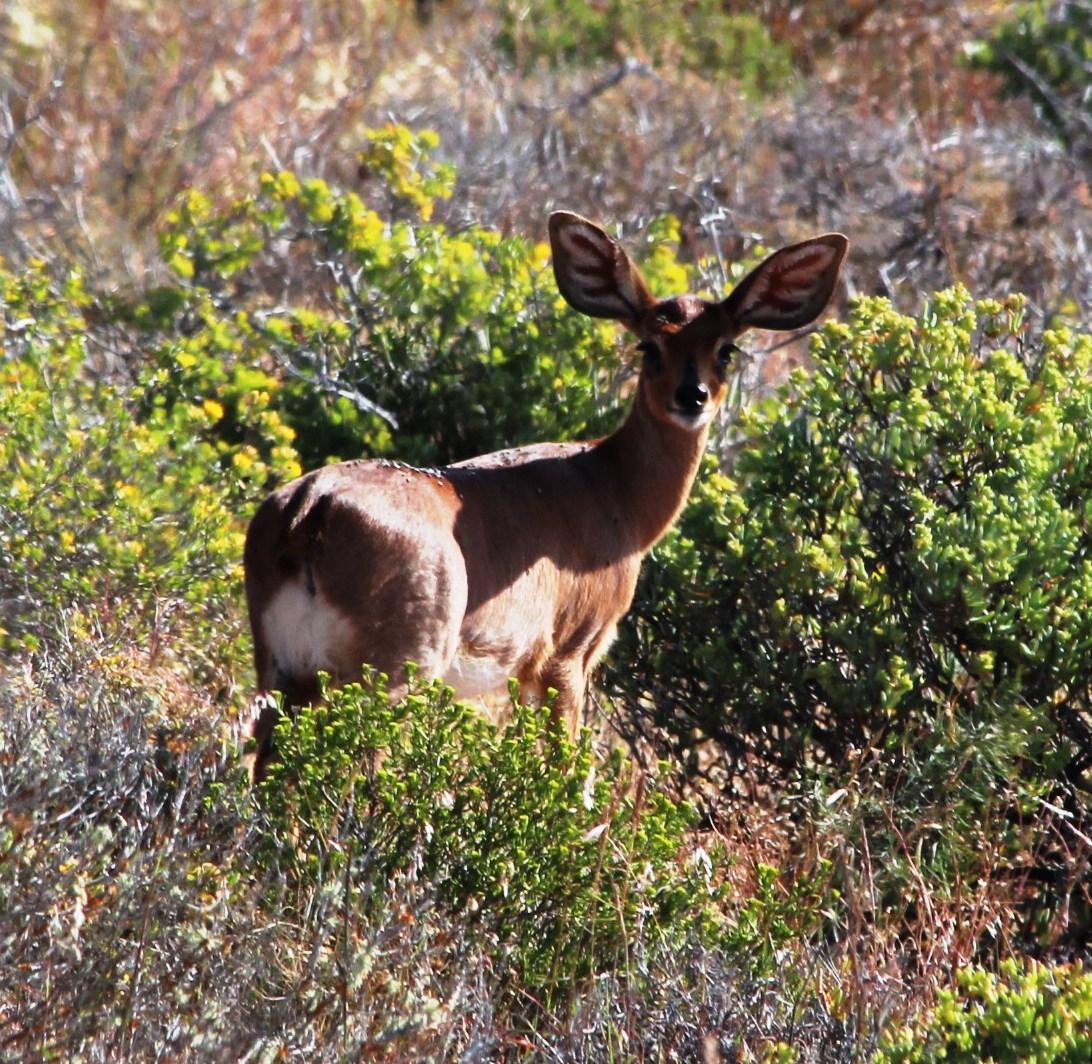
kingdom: Animalia
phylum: Chordata
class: Mammalia
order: Artiodactyla
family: Bovidae
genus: Raphicerus
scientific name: Raphicerus campestris
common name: Steenbok
